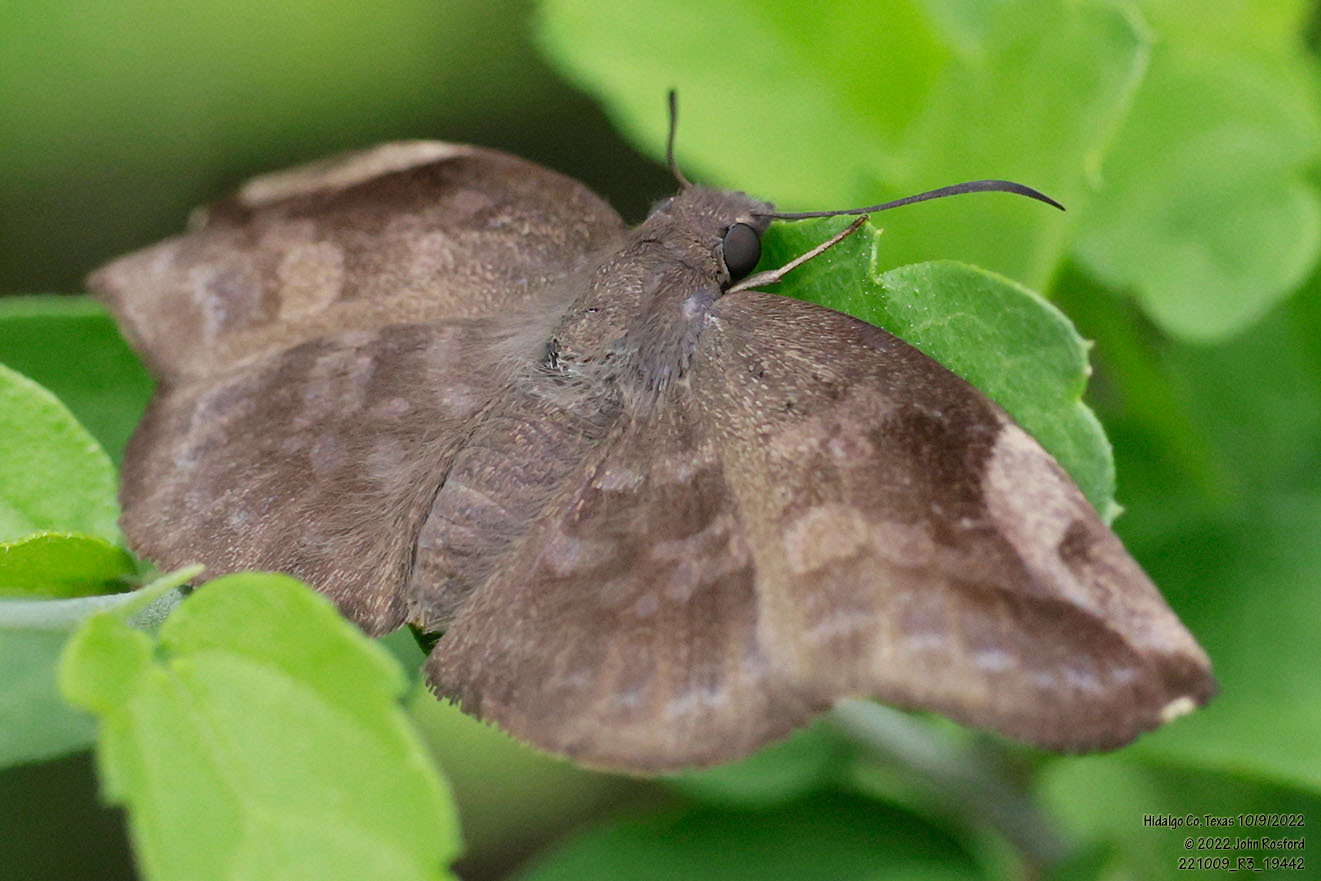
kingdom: Animalia
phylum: Arthropoda
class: Insecta
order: Lepidoptera
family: Hesperiidae
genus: Achlyodes
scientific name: Achlyodes thraso
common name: Sickle-winged skipper
